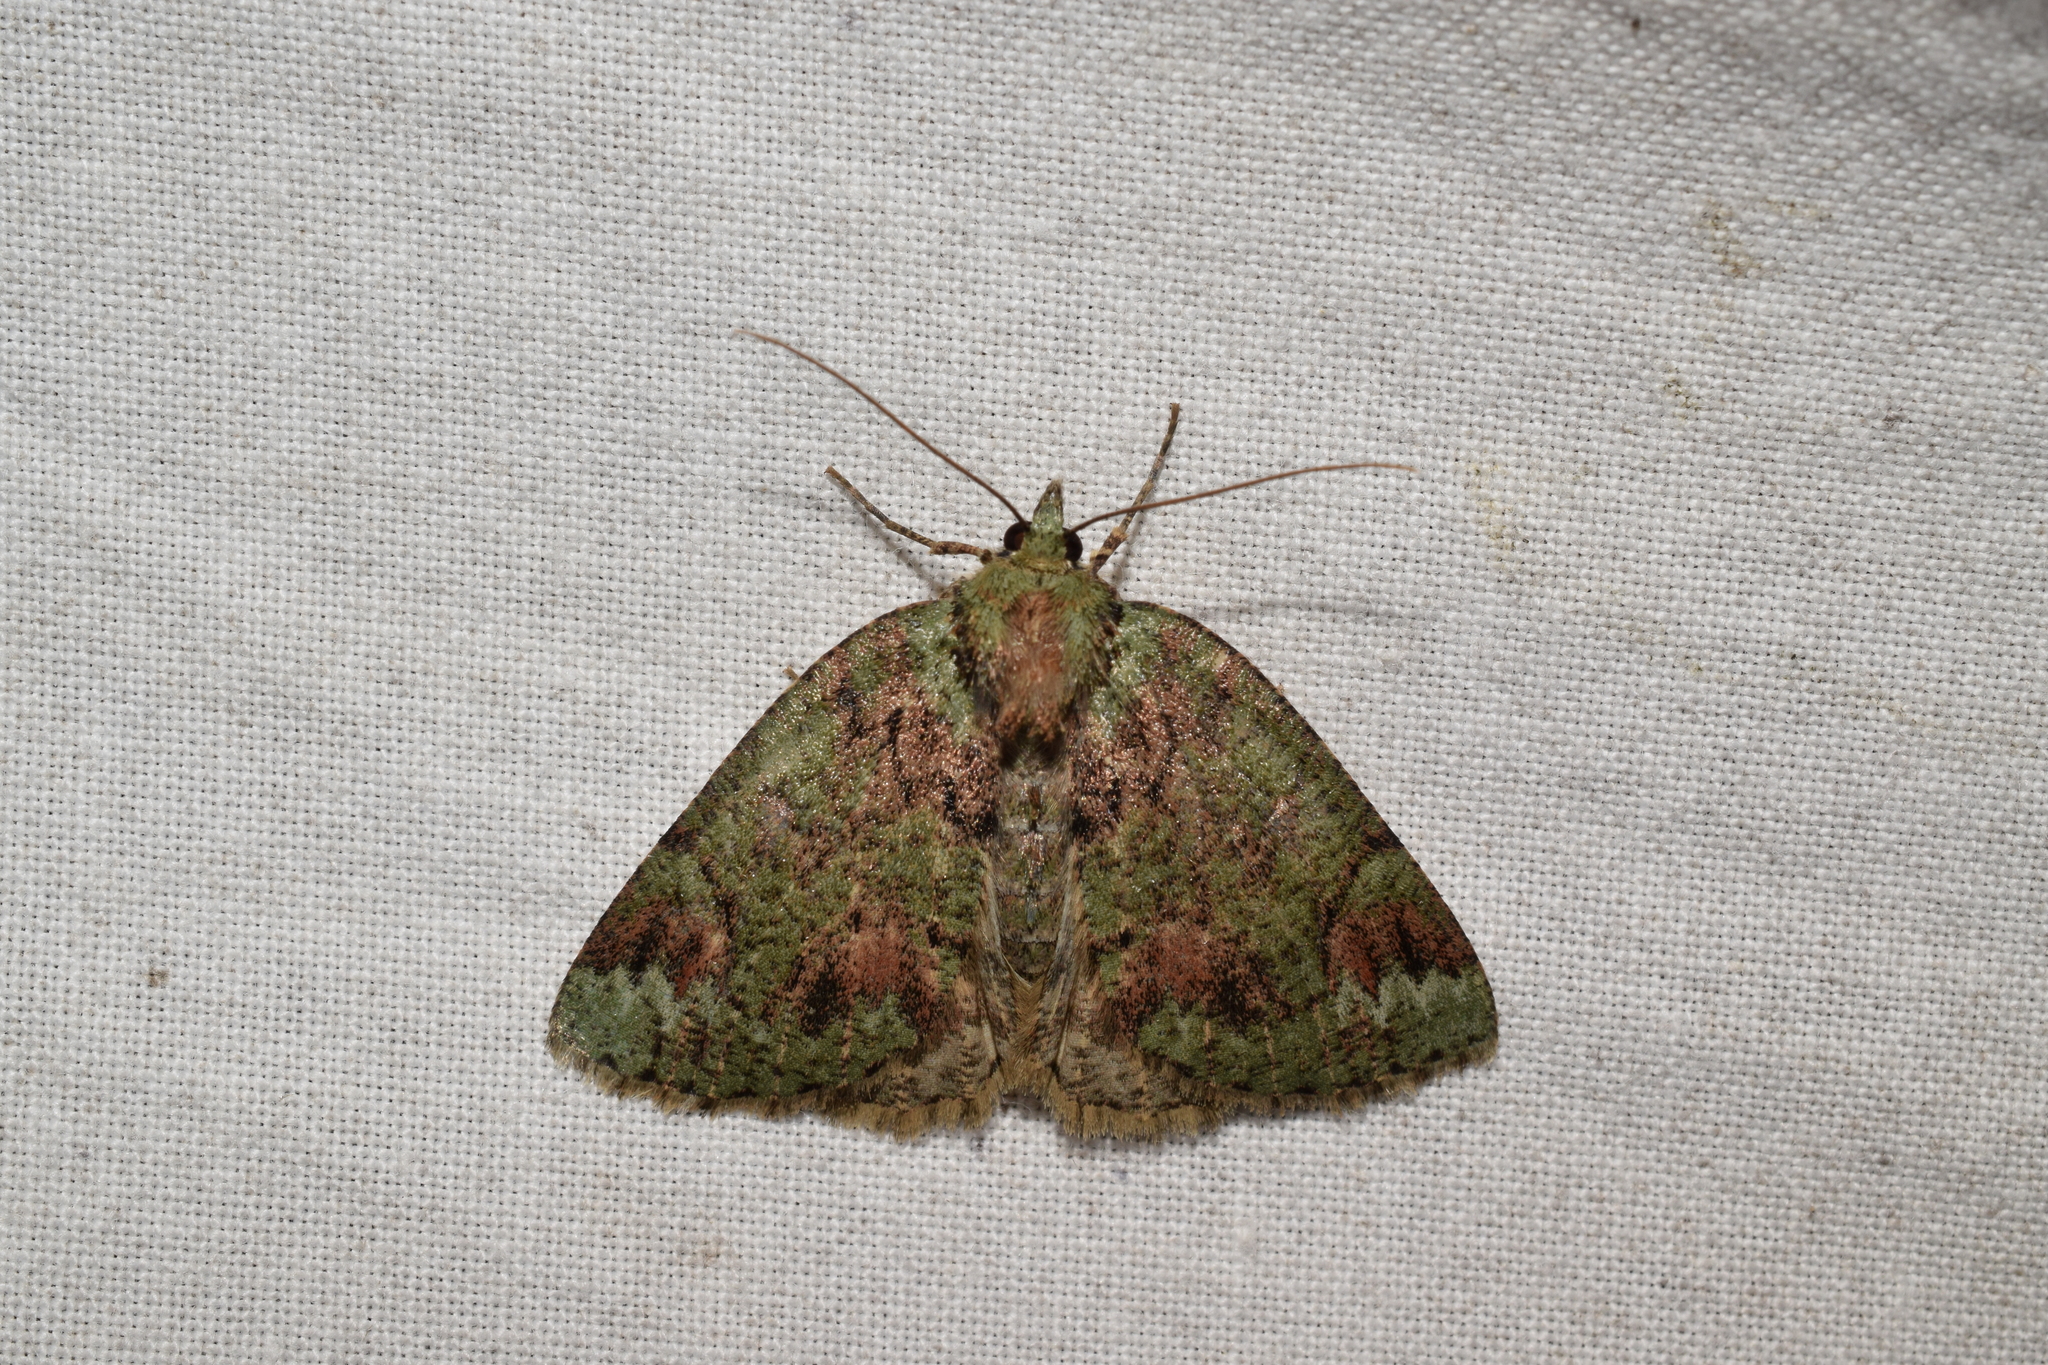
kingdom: Animalia
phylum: Arthropoda
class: Insecta
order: Lepidoptera
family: Geometridae
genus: Dindica
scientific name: Dindica virescens
